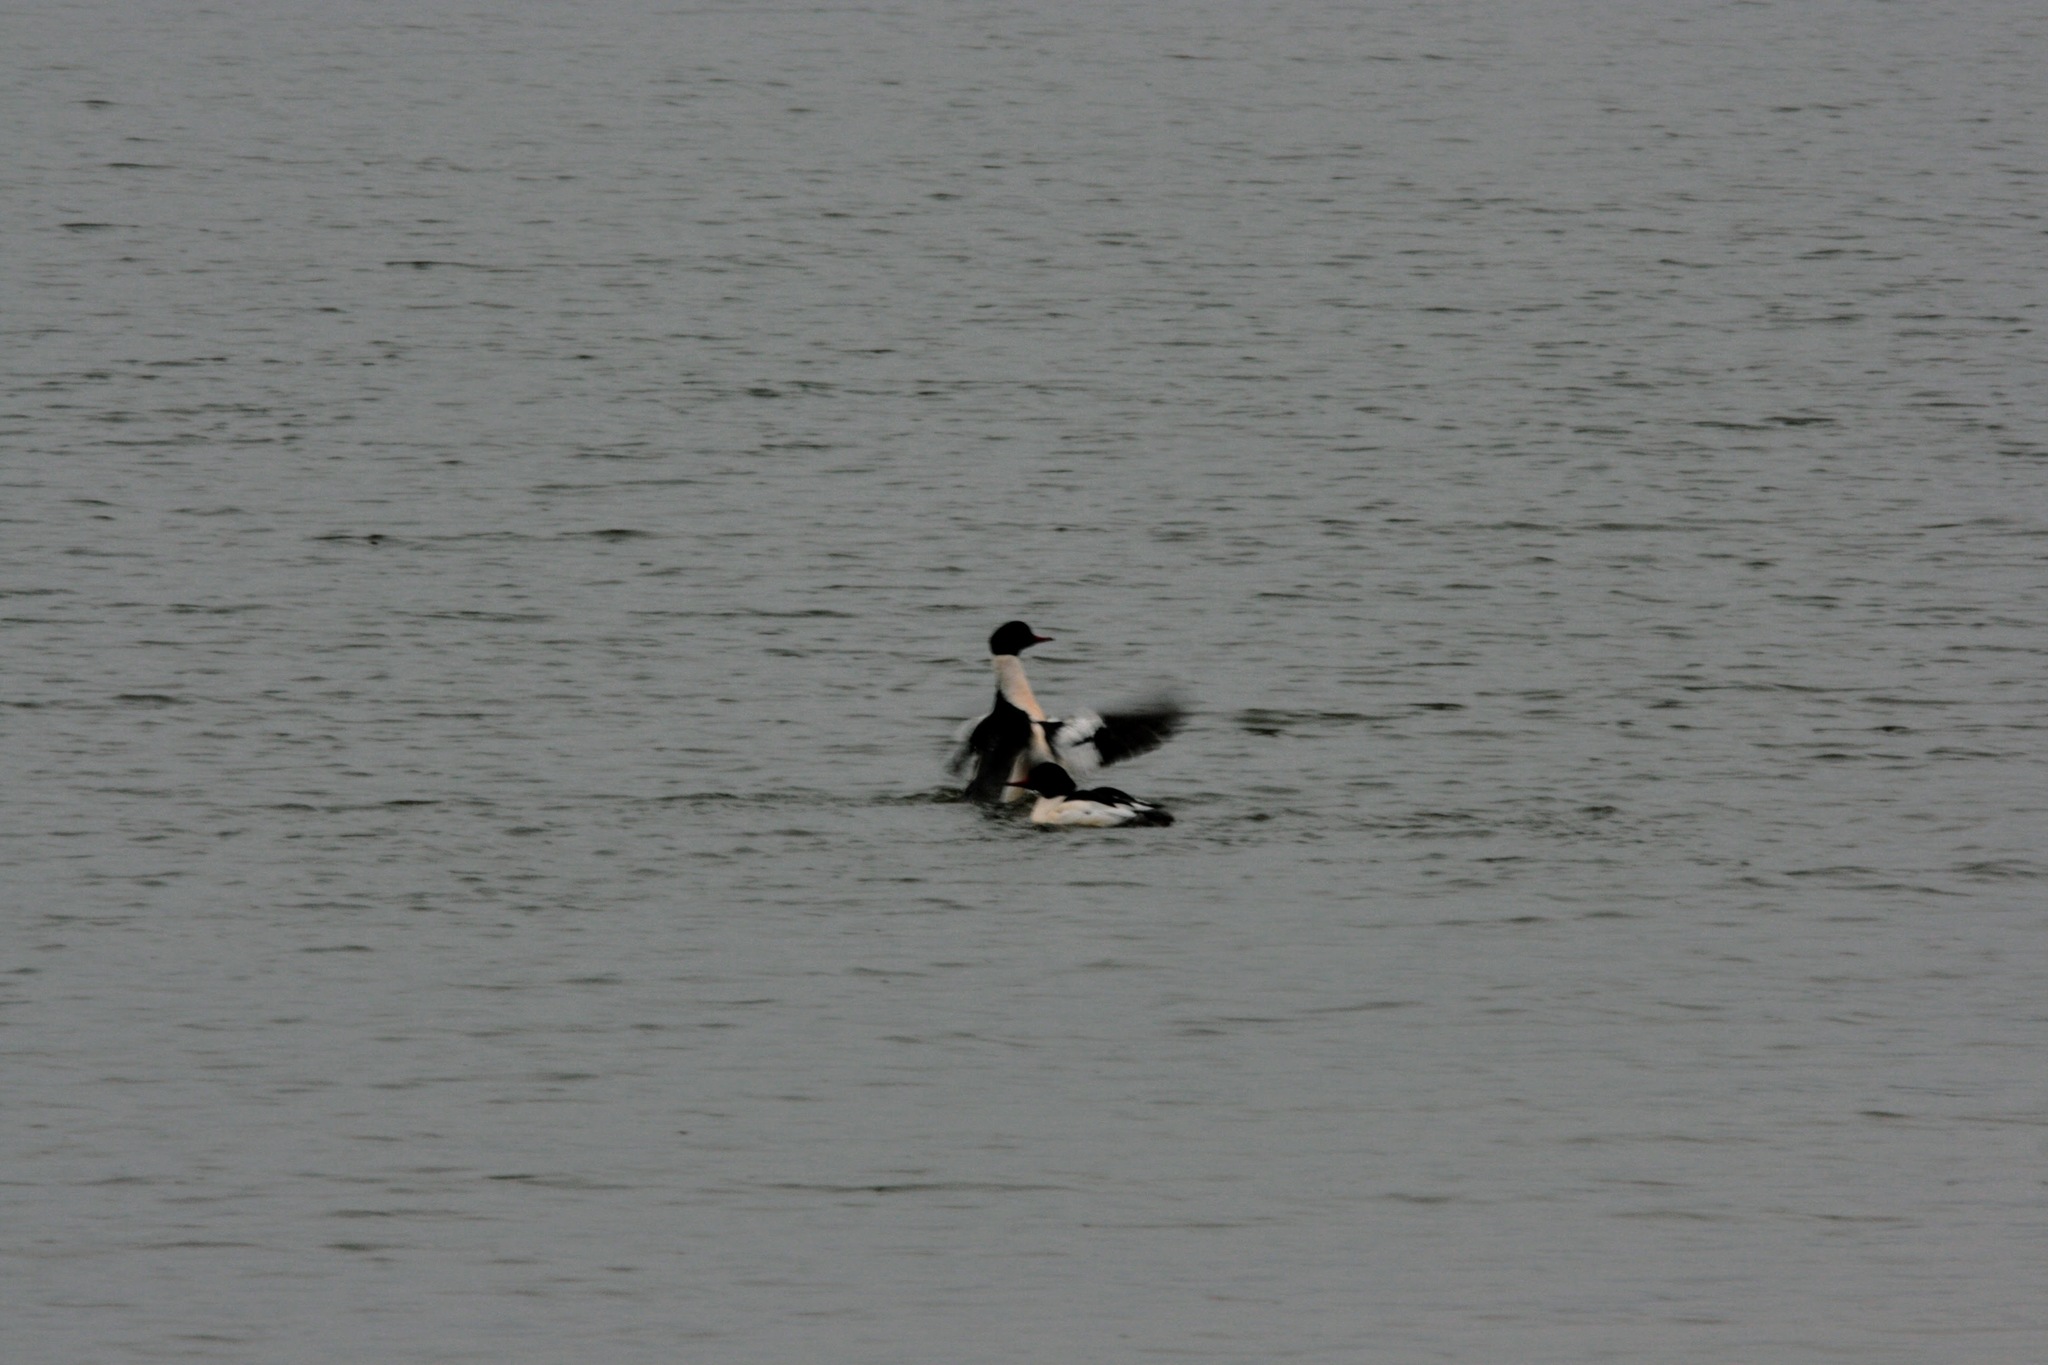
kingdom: Animalia
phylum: Chordata
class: Aves
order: Anseriformes
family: Anatidae
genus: Mergus
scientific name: Mergus merganser
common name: Common merganser
